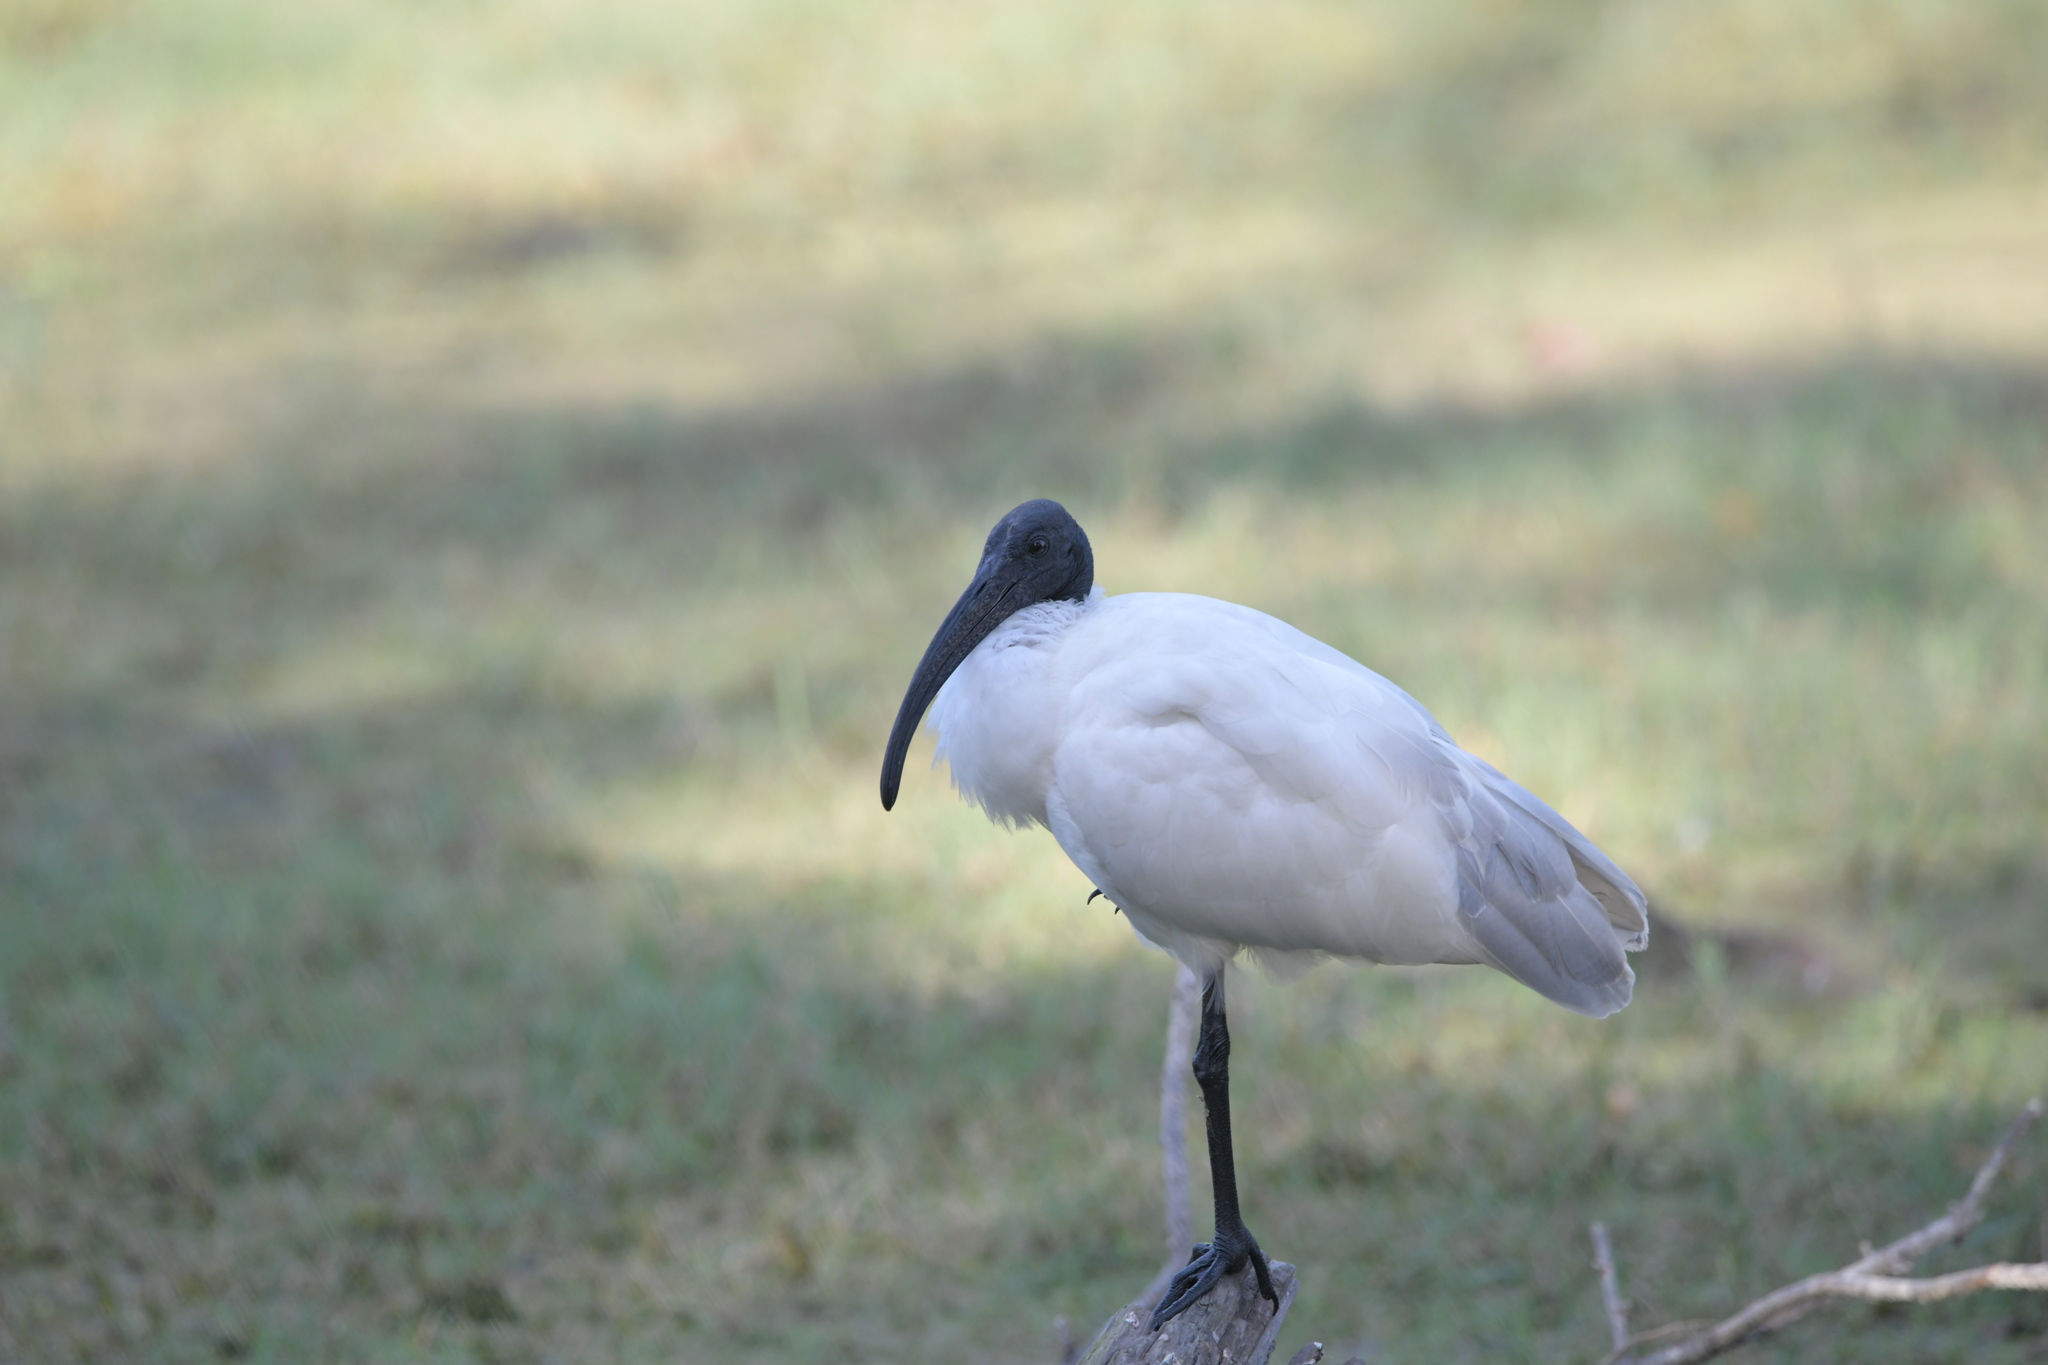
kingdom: Animalia
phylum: Chordata
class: Aves
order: Pelecaniformes
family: Threskiornithidae
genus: Threskiornis
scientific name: Threskiornis melanocephalus
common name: Black-headed ibis
